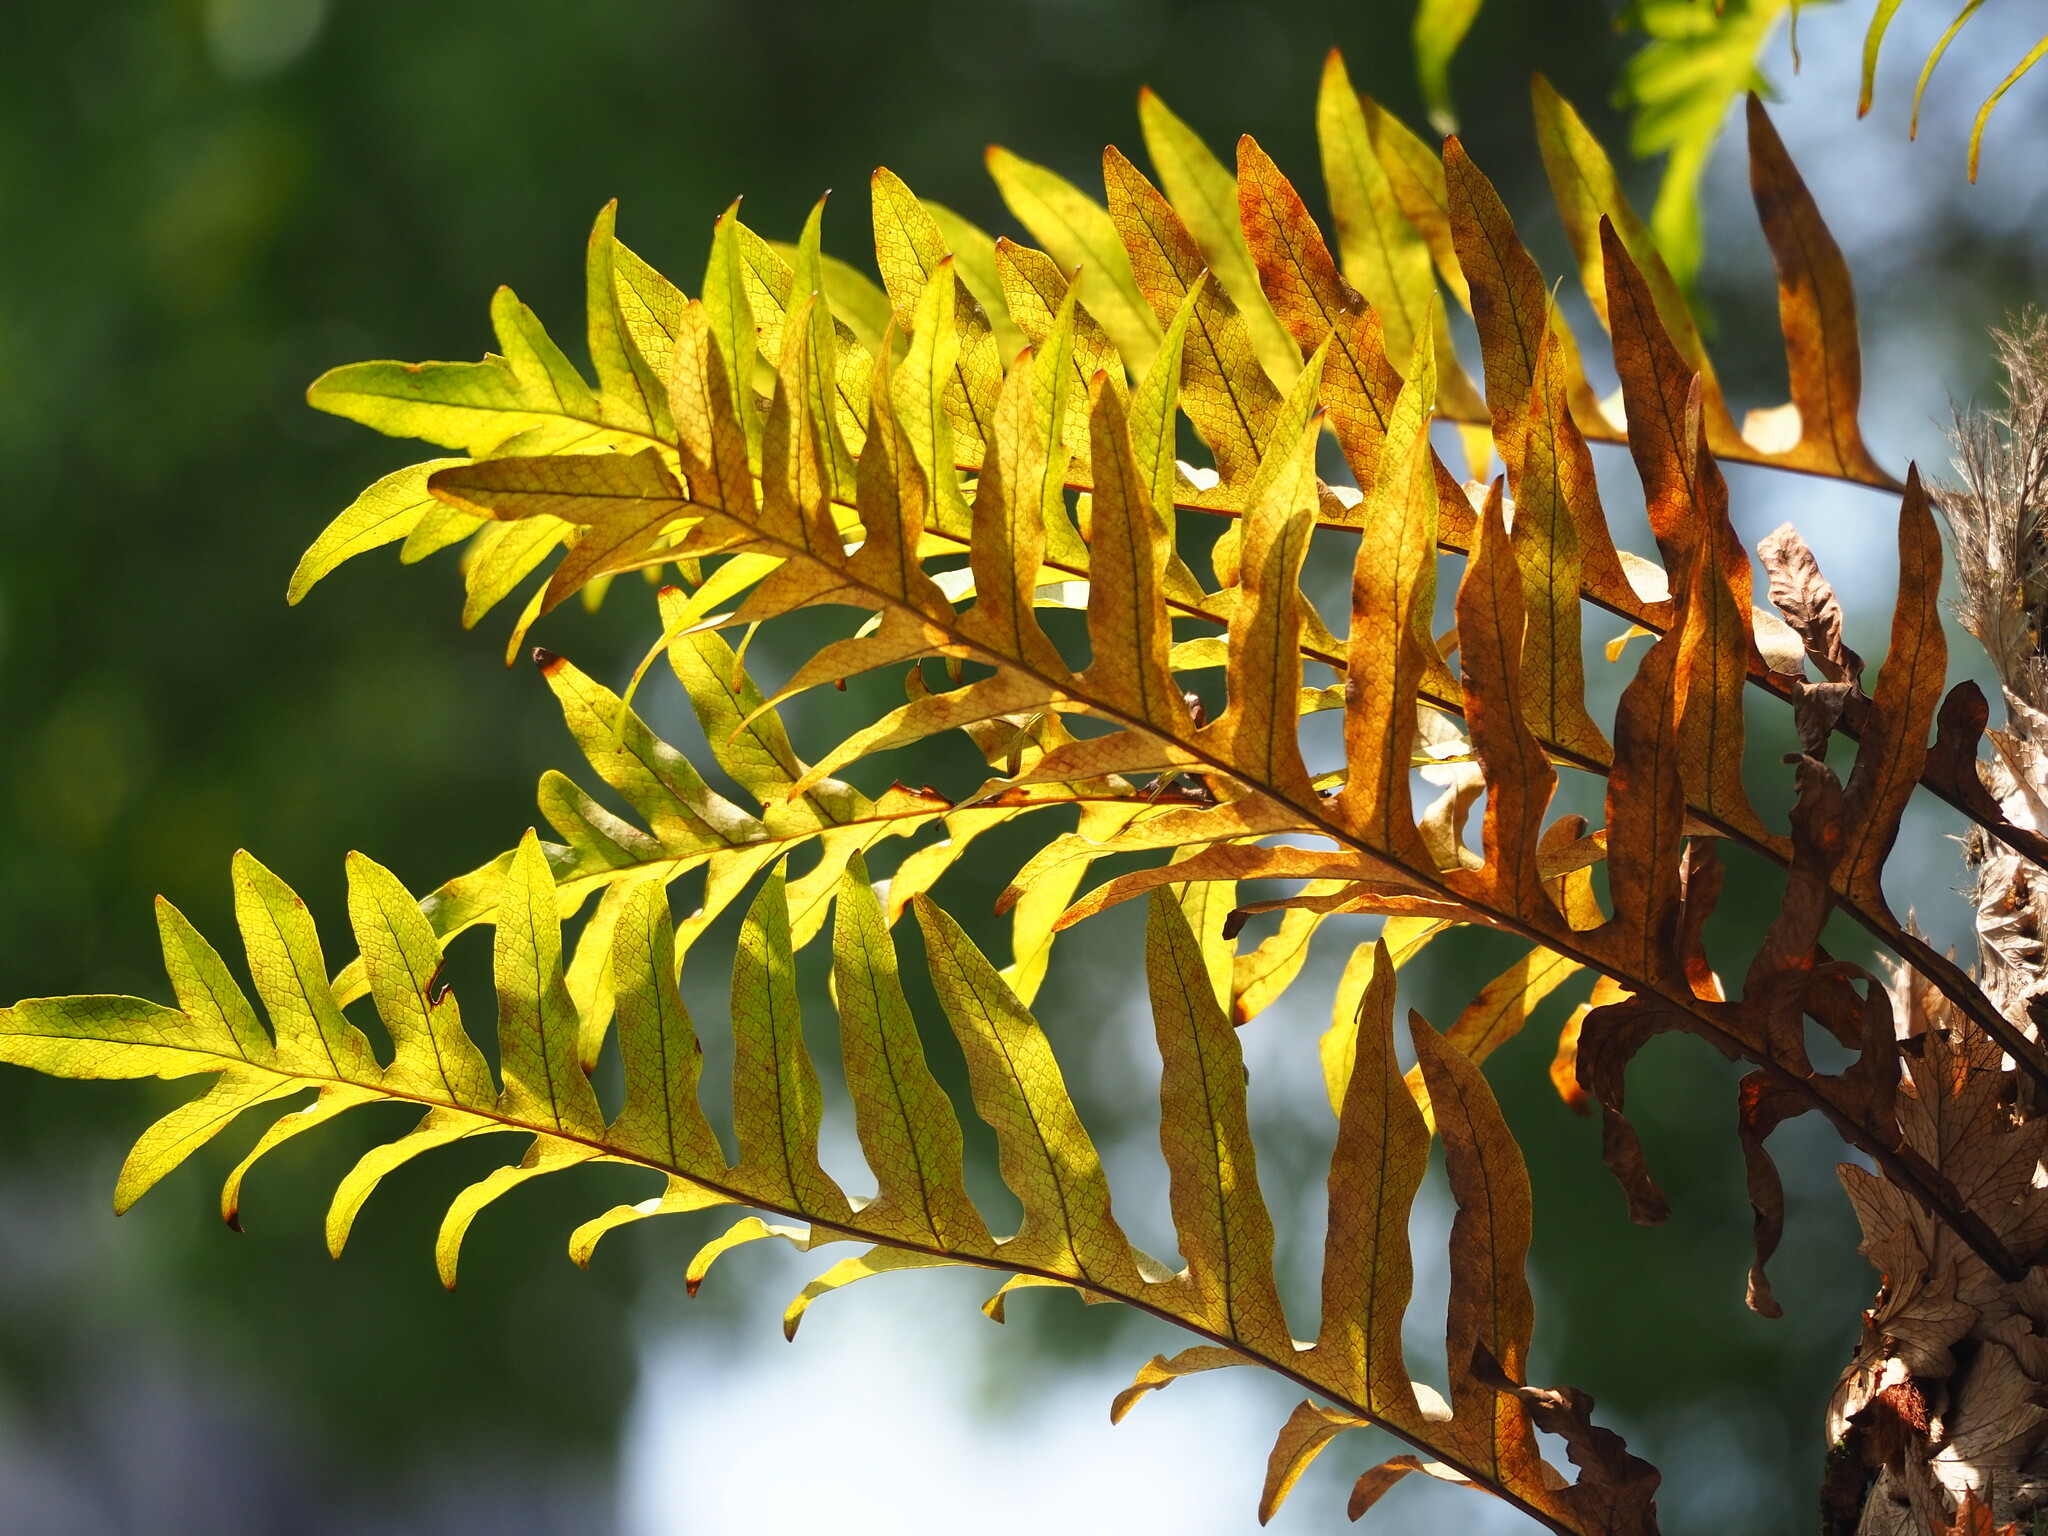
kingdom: Plantae
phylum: Tracheophyta
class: Polypodiopsida
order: Polypodiales
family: Polypodiaceae
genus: Drynaria
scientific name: Drynaria roosii
